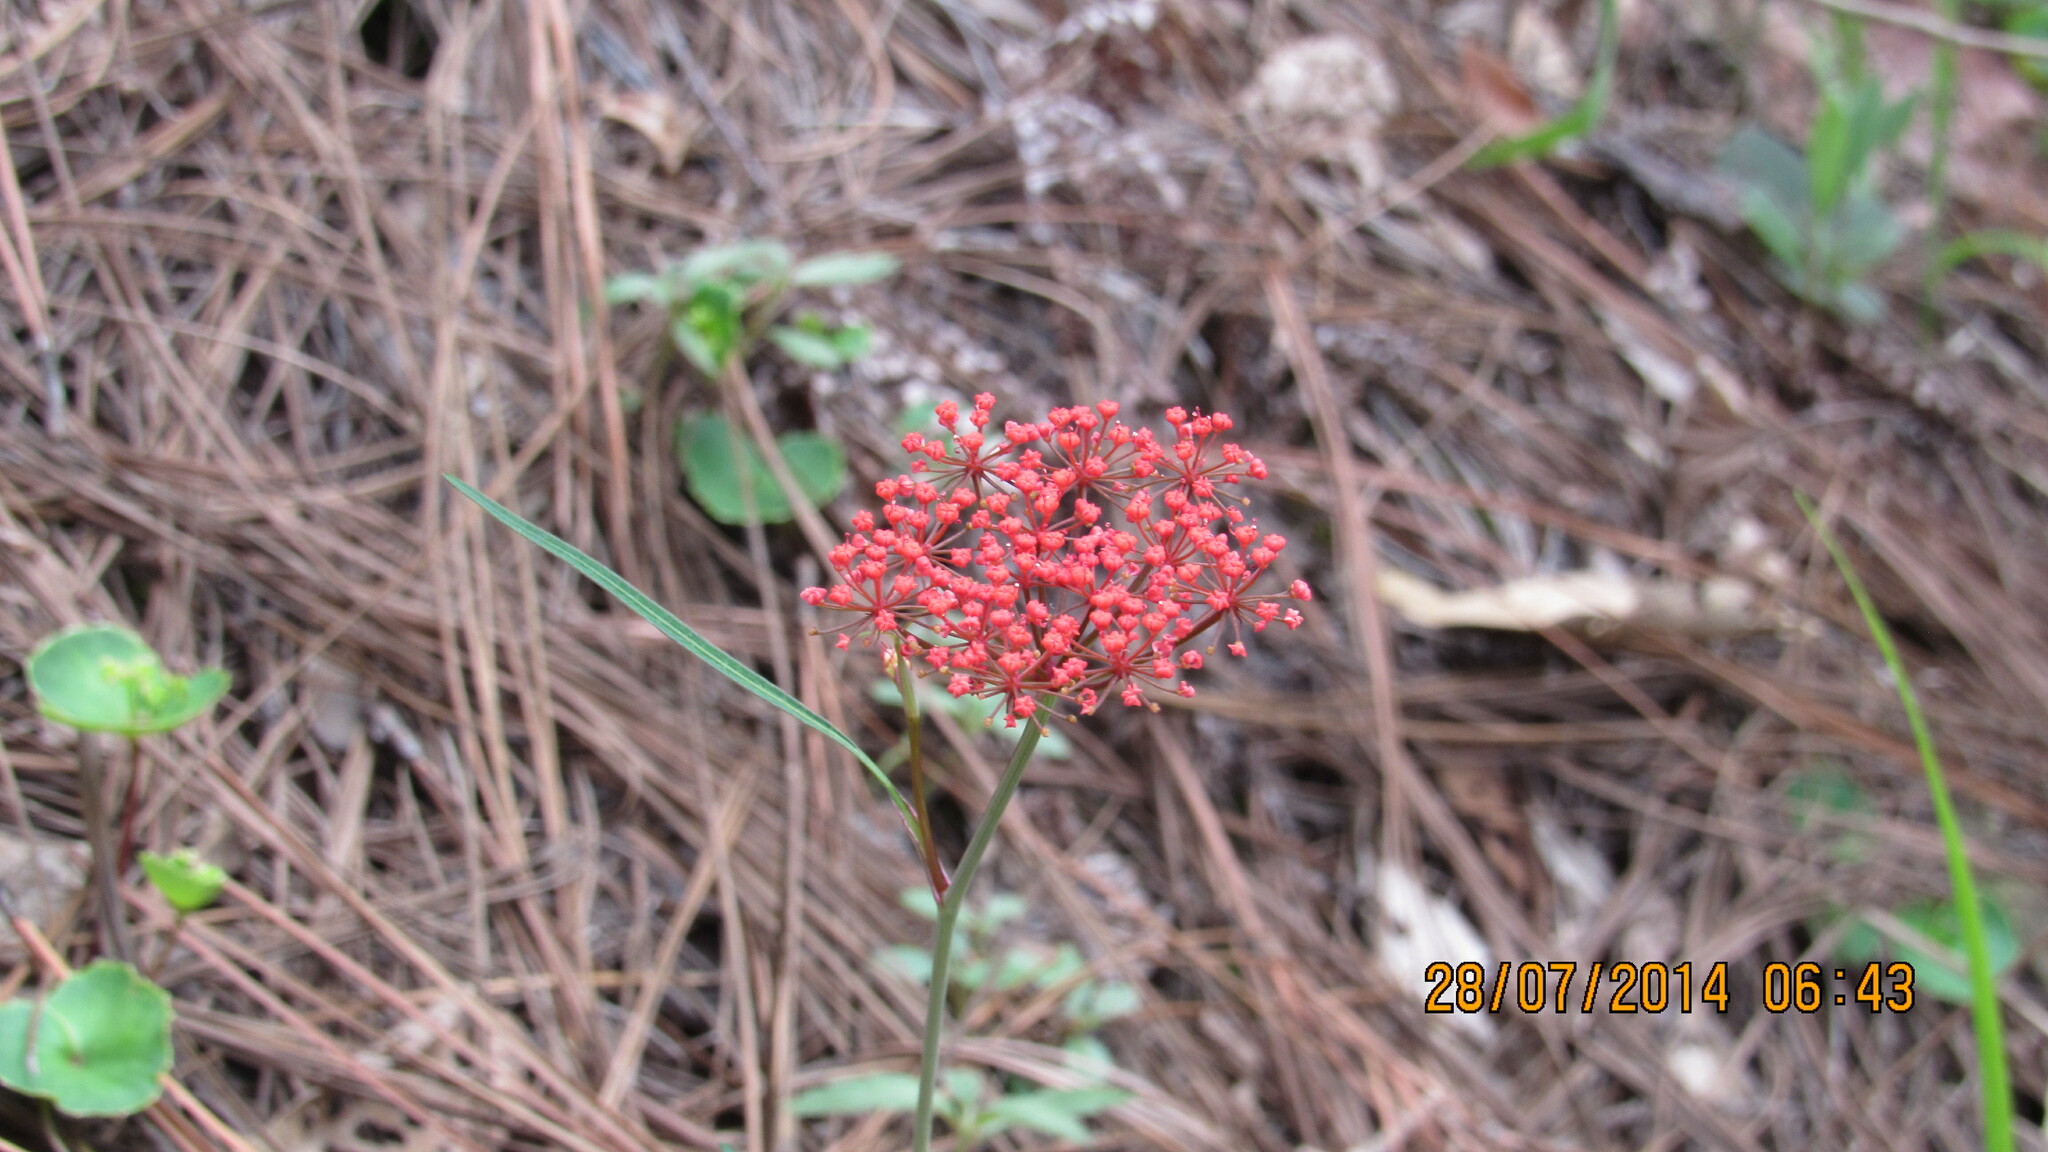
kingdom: Plantae
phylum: Tracheophyta
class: Magnoliopsida
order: Apiales
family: Apiaceae
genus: Prionosciadium
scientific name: Prionosciadium tamayoi
